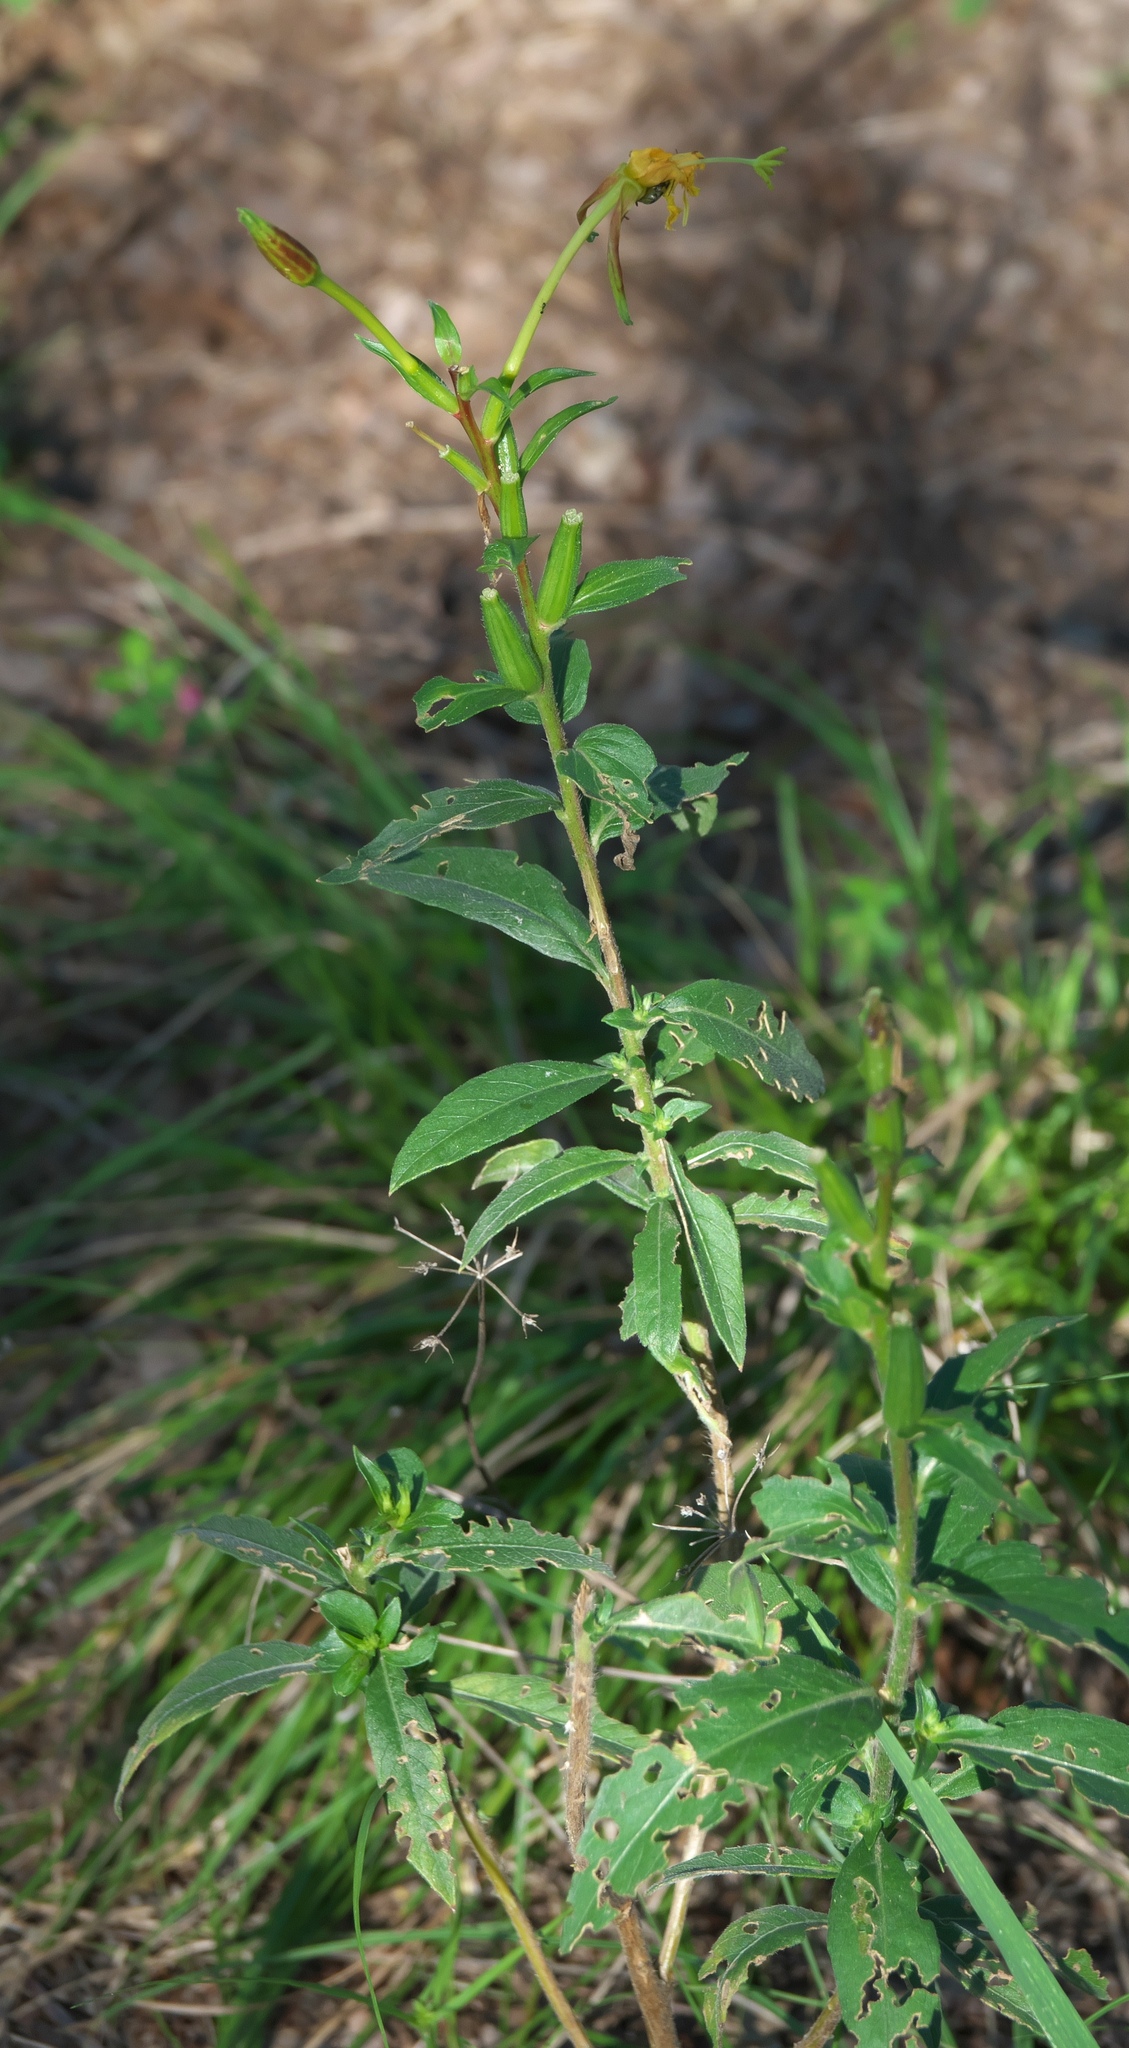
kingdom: Plantae
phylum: Tracheophyta
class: Magnoliopsida
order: Myrtales
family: Onagraceae
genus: Oenothera
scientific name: Oenothera villosa
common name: Hairy evening-primrose
